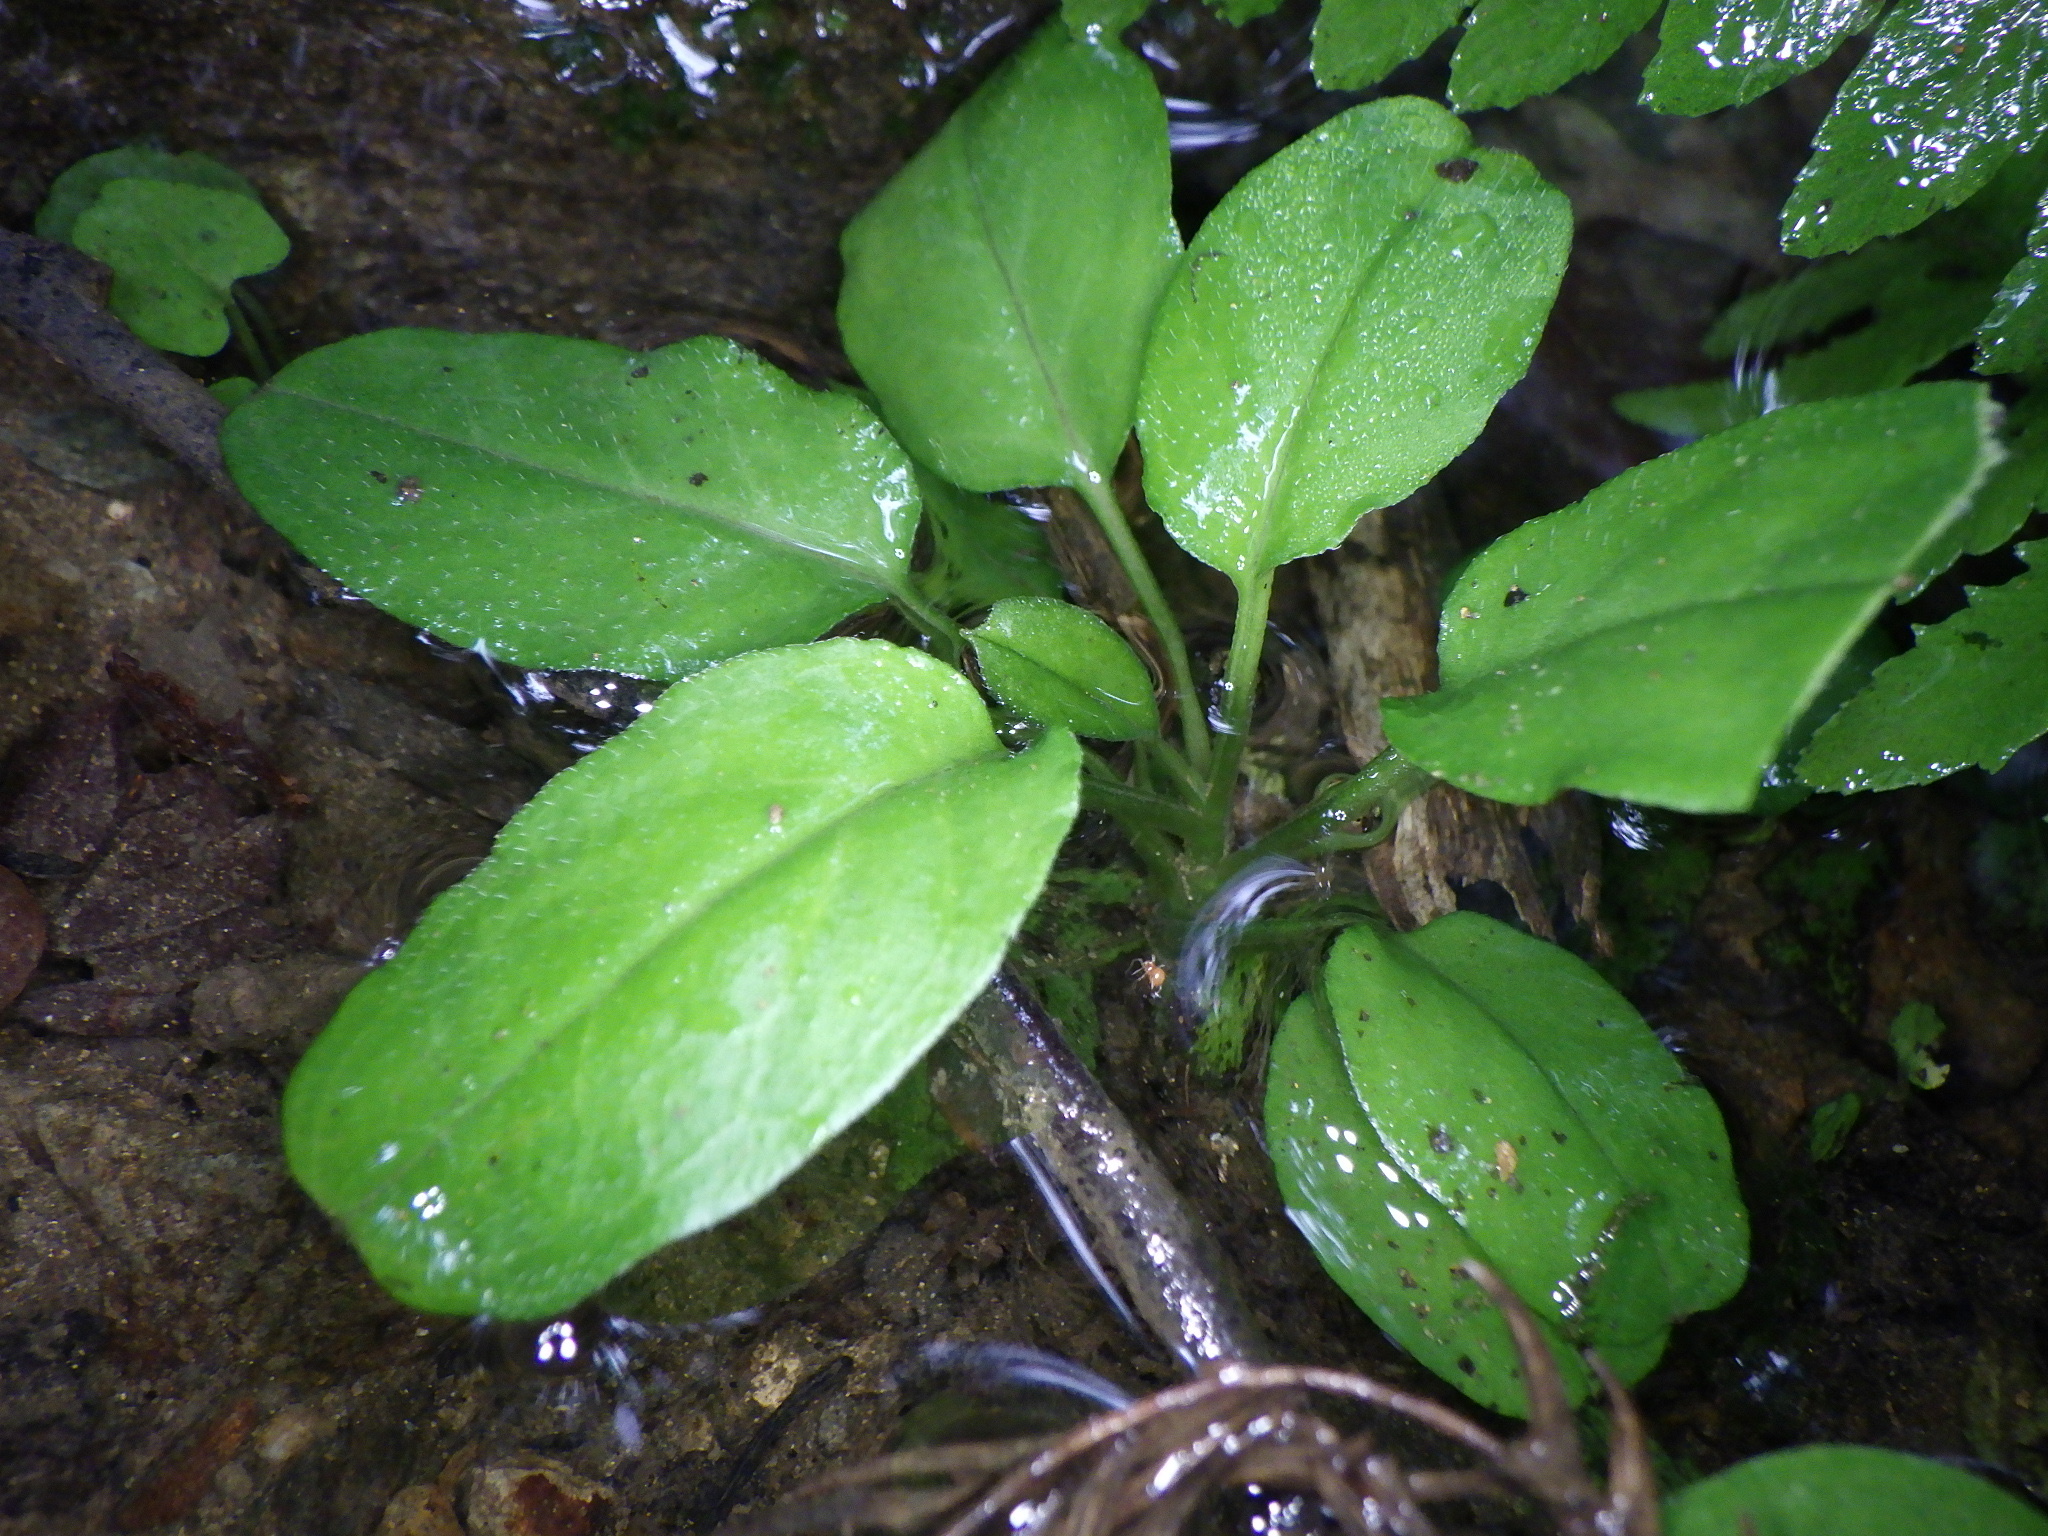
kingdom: Plantae
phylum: Tracheophyta
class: Magnoliopsida
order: Boraginales
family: Boraginaceae
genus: Trigonotis
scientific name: Trigonotis brevipes
